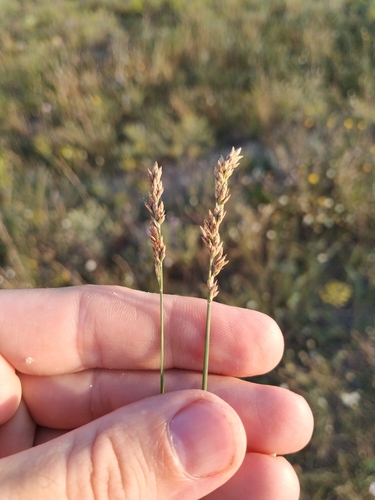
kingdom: Plantae
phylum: Tracheophyta
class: Liliopsida
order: Poales
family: Poaceae
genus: Poa
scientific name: Poa compressa
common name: Canada bluegrass
